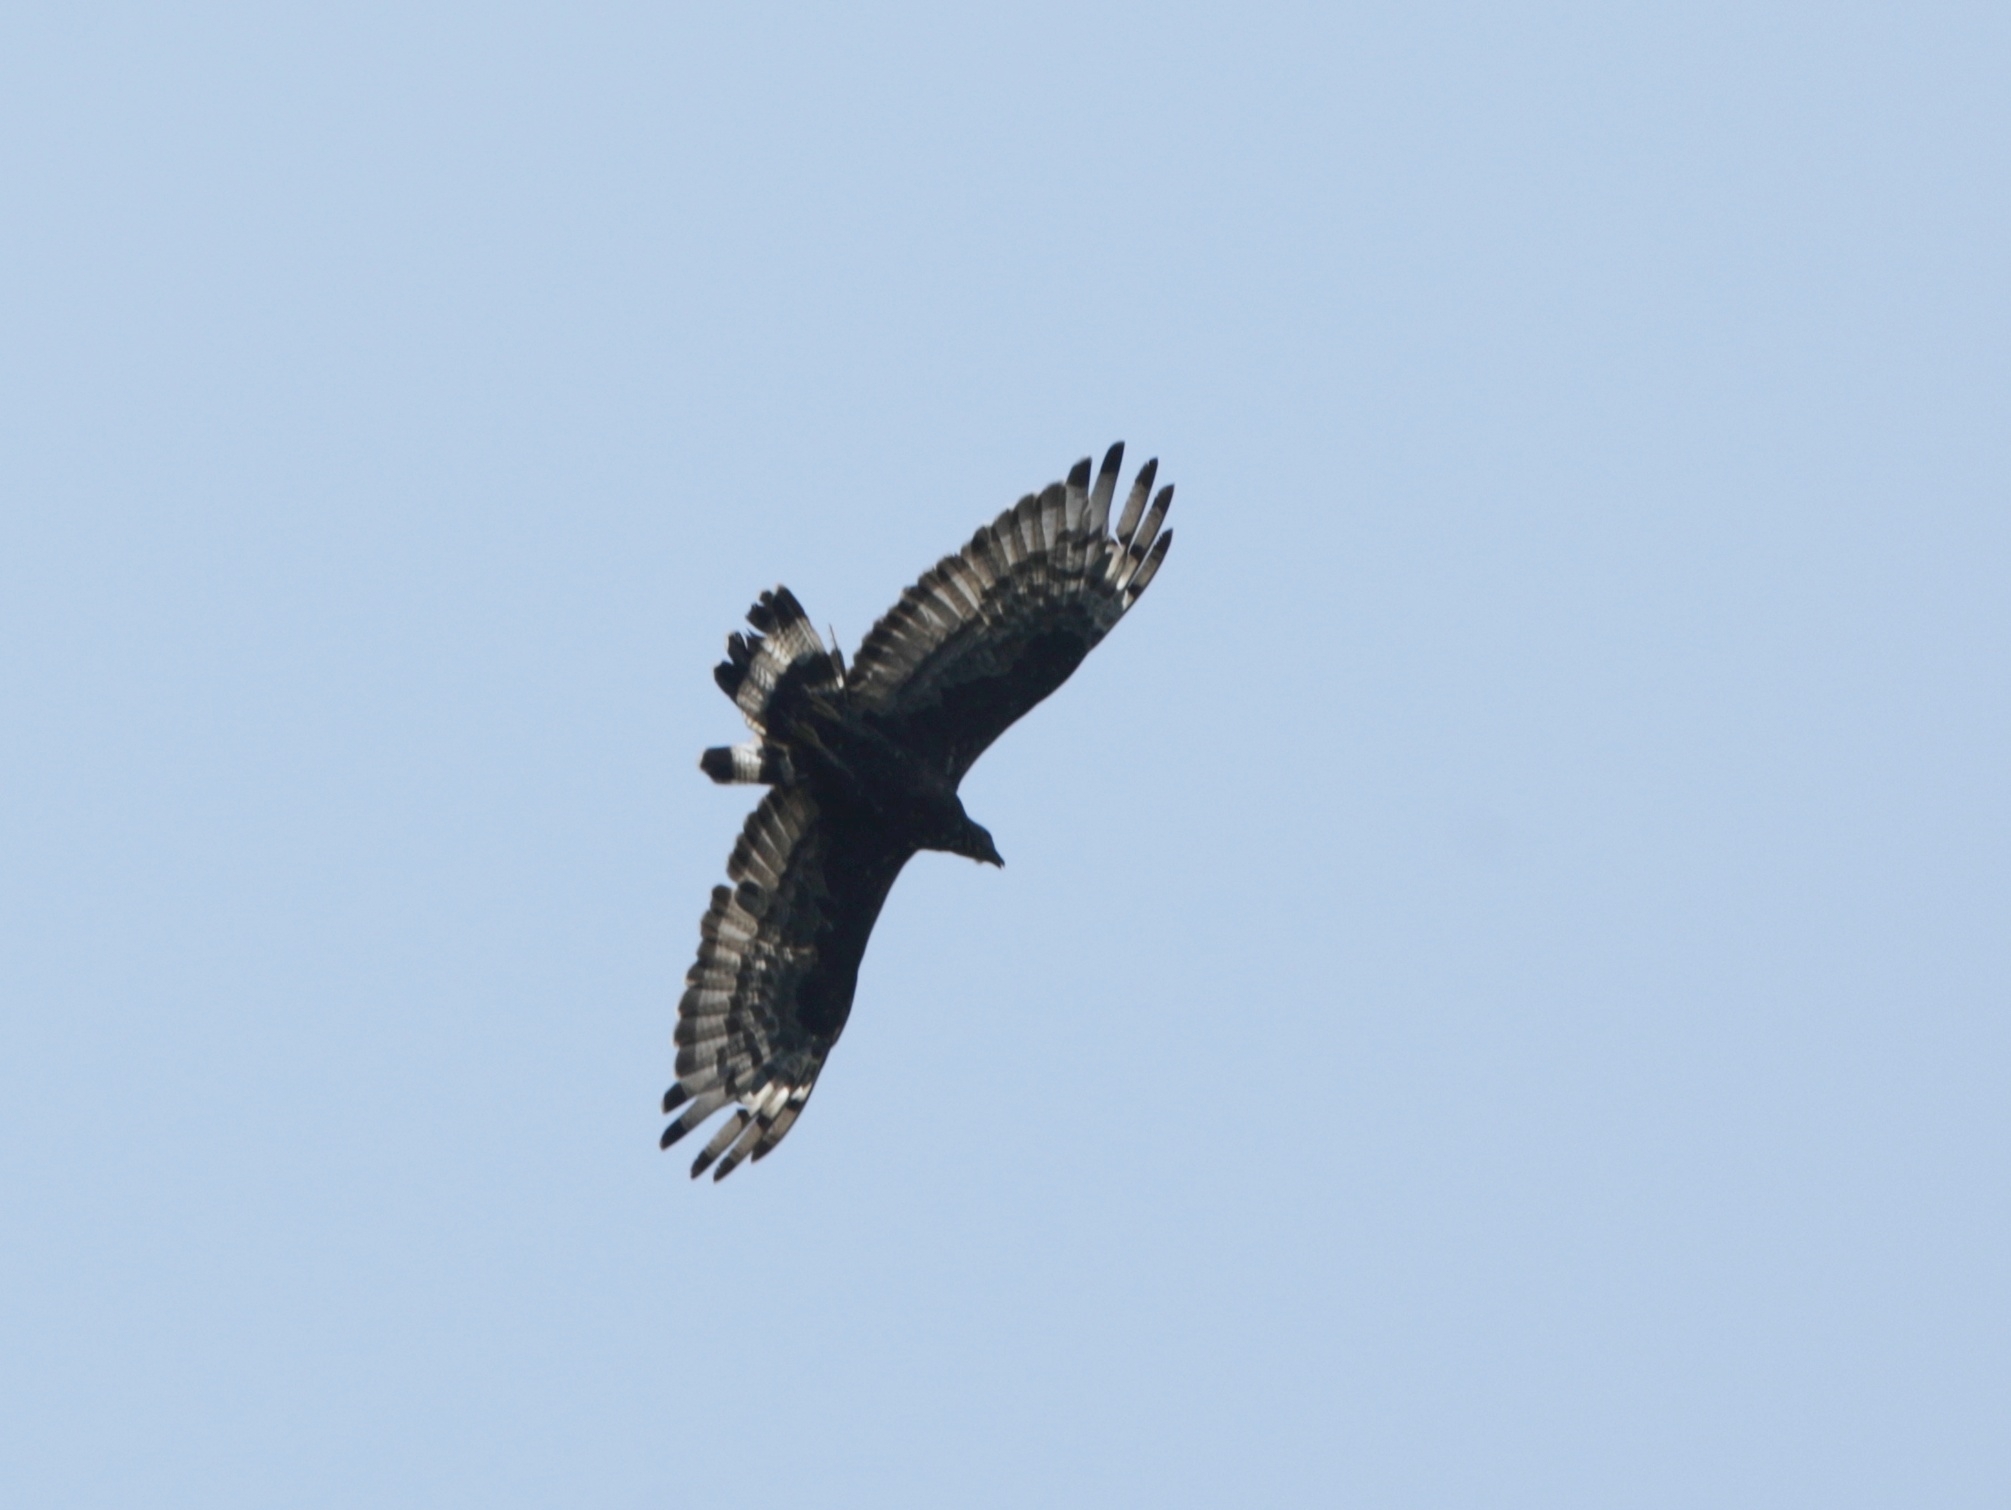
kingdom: Animalia
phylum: Chordata
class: Aves
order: Accipitriformes
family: Accipitridae
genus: Spilornis
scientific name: Spilornis cheela
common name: Crested serpent eagle
